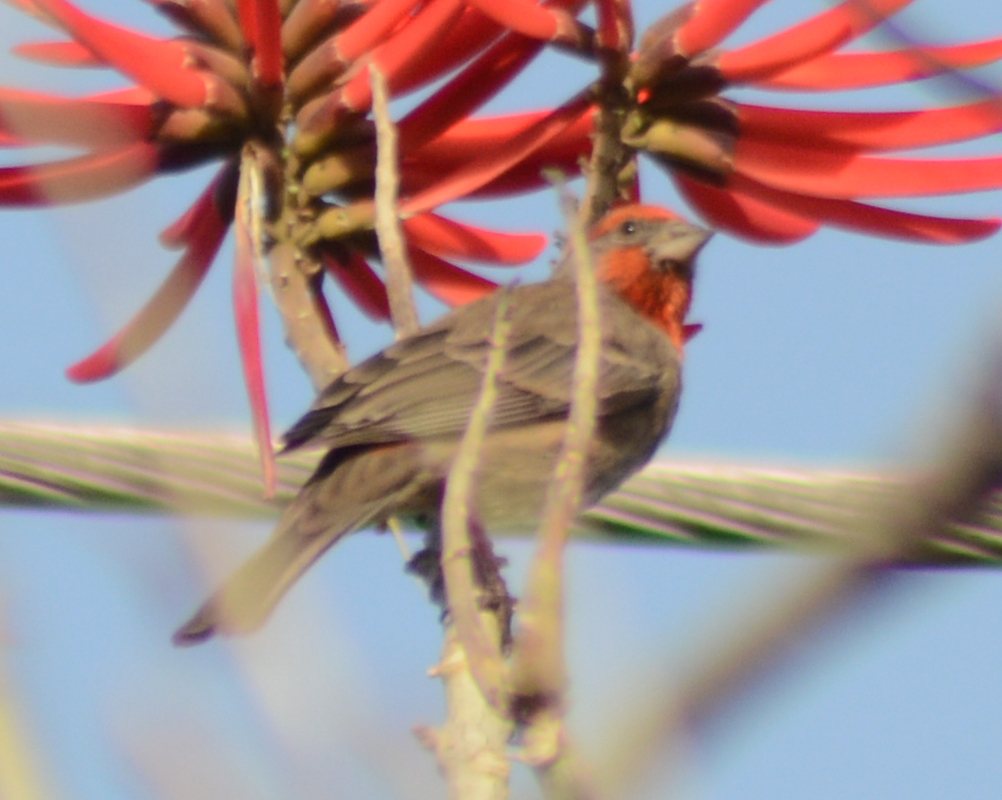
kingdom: Animalia
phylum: Chordata
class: Aves
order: Passeriformes
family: Fringillidae
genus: Haemorhous
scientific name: Haemorhous mexicanus
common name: House finch
